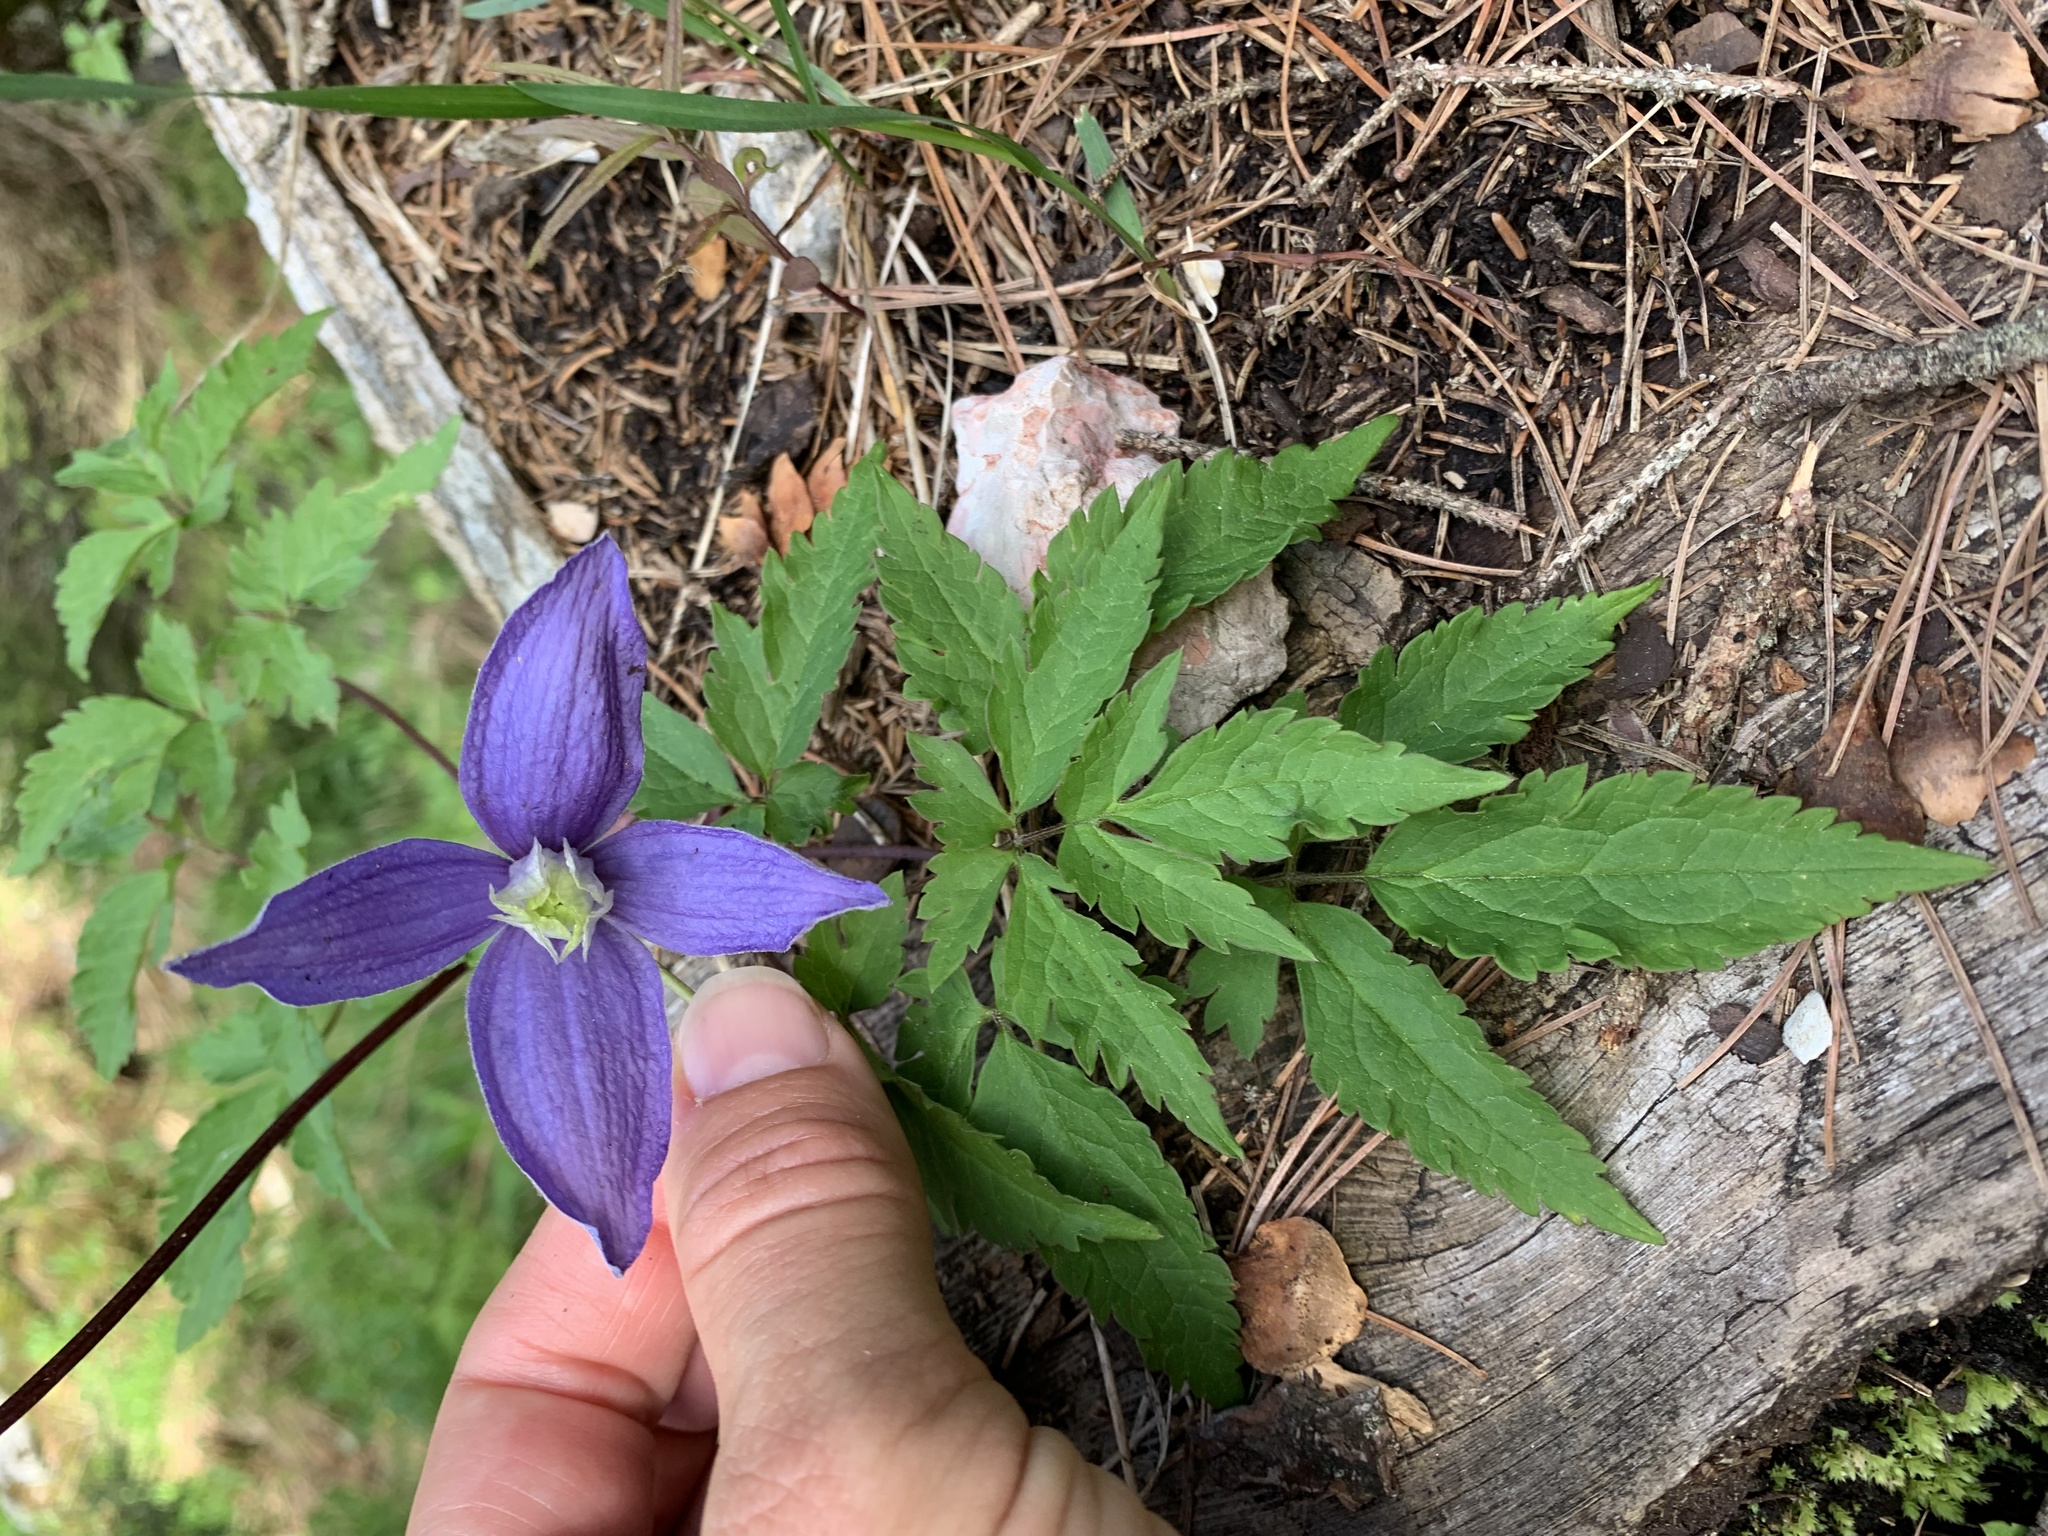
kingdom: Plantae
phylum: Tracheophyta
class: Magnoliopsida
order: Ranunculales
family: Ranunculaceae
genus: Clematis
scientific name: Clematis alpina
